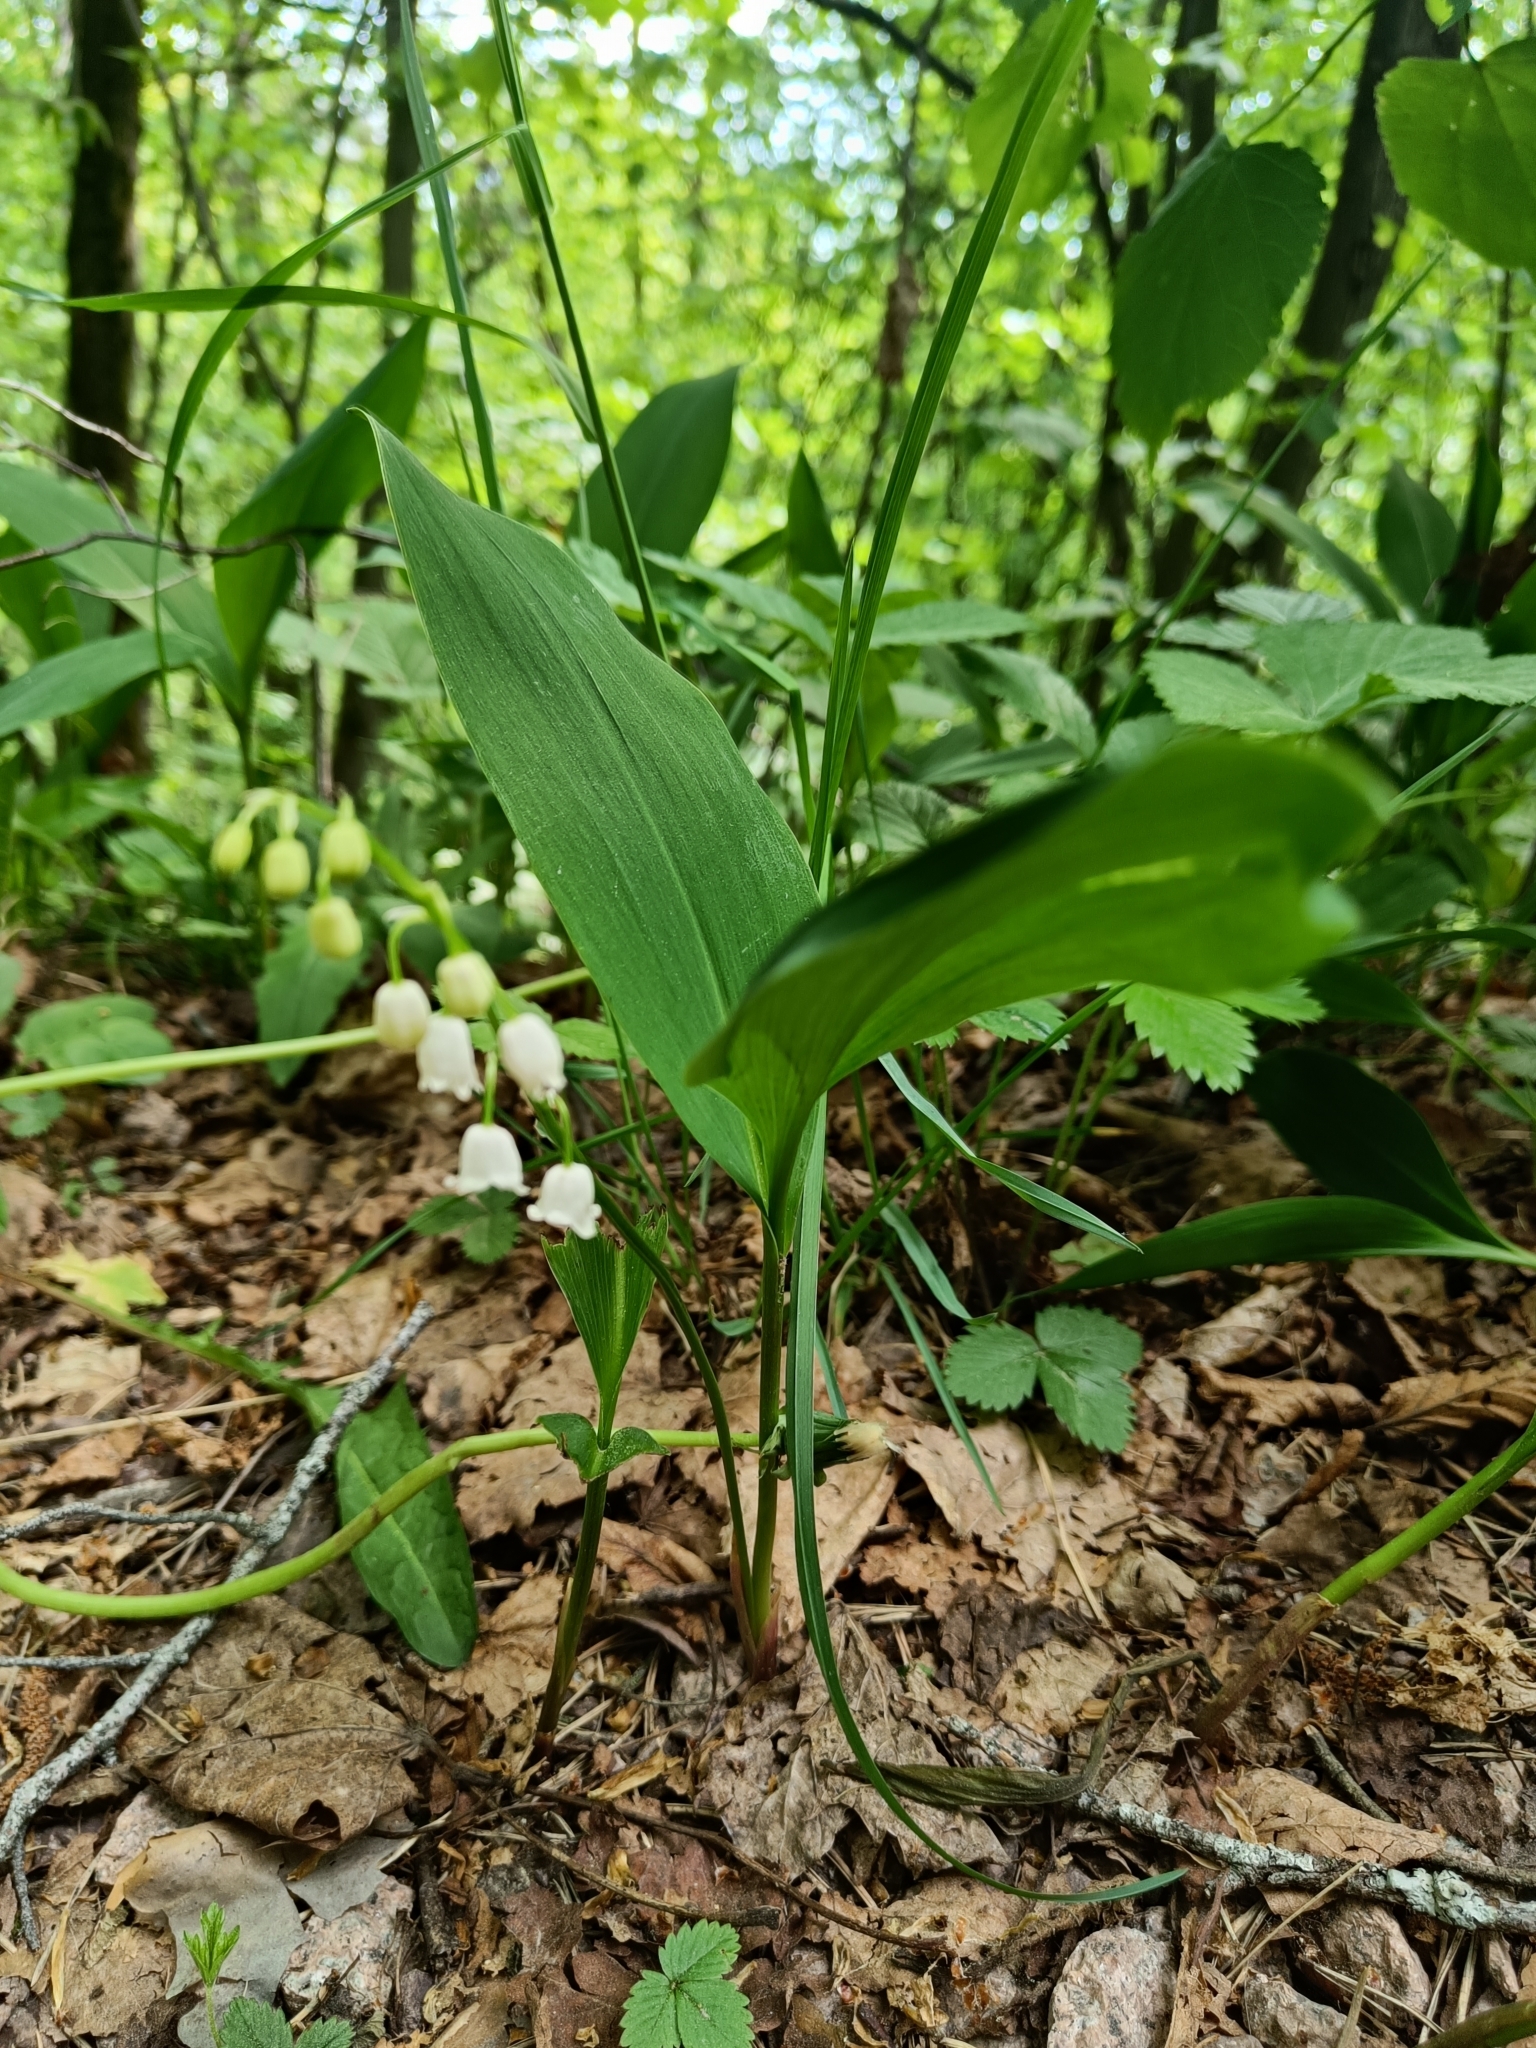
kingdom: Plantae
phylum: Tracheophyta
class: Liliopsida
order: Asparagales
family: Asparagaceae
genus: Convallaria
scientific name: Convallaria majalis
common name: Lily-of-the-valley
